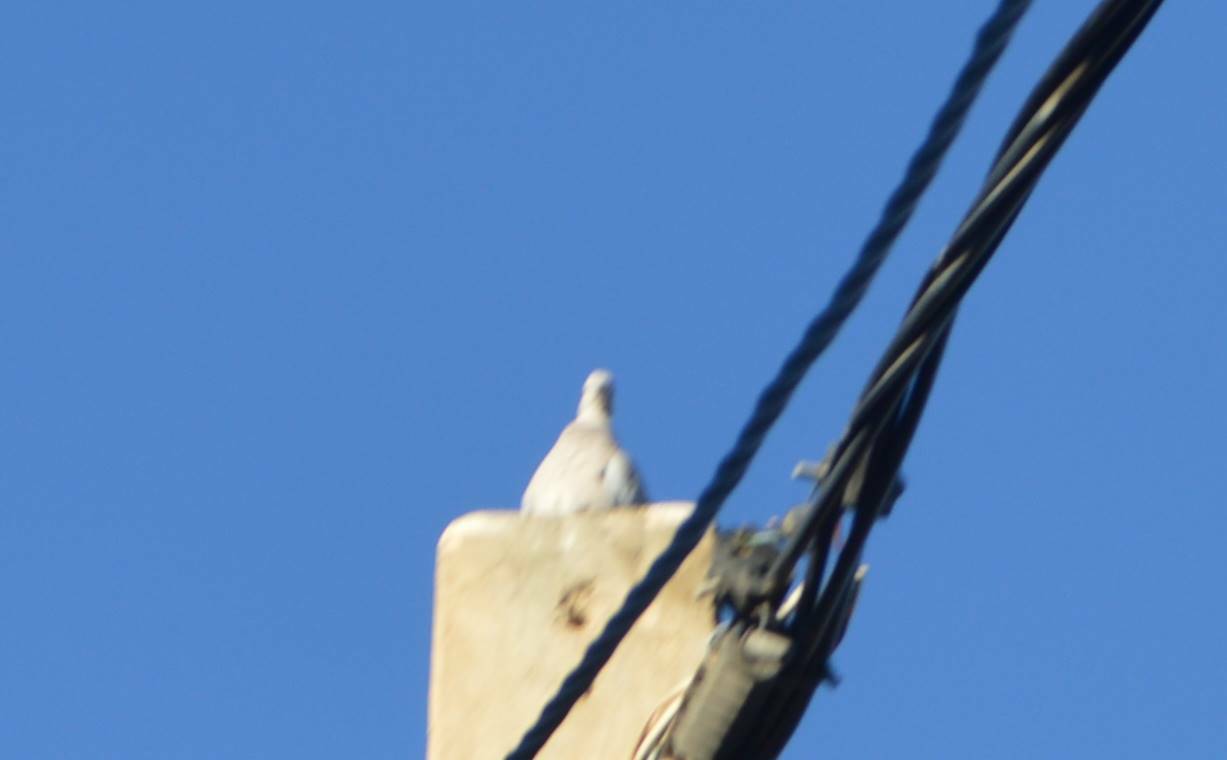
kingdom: Animalia
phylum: Chordata
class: Aves
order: Columbiformes
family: Columbidae
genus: Streptopelia
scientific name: Streptopelia decaocto
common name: Eurasian collared dove
